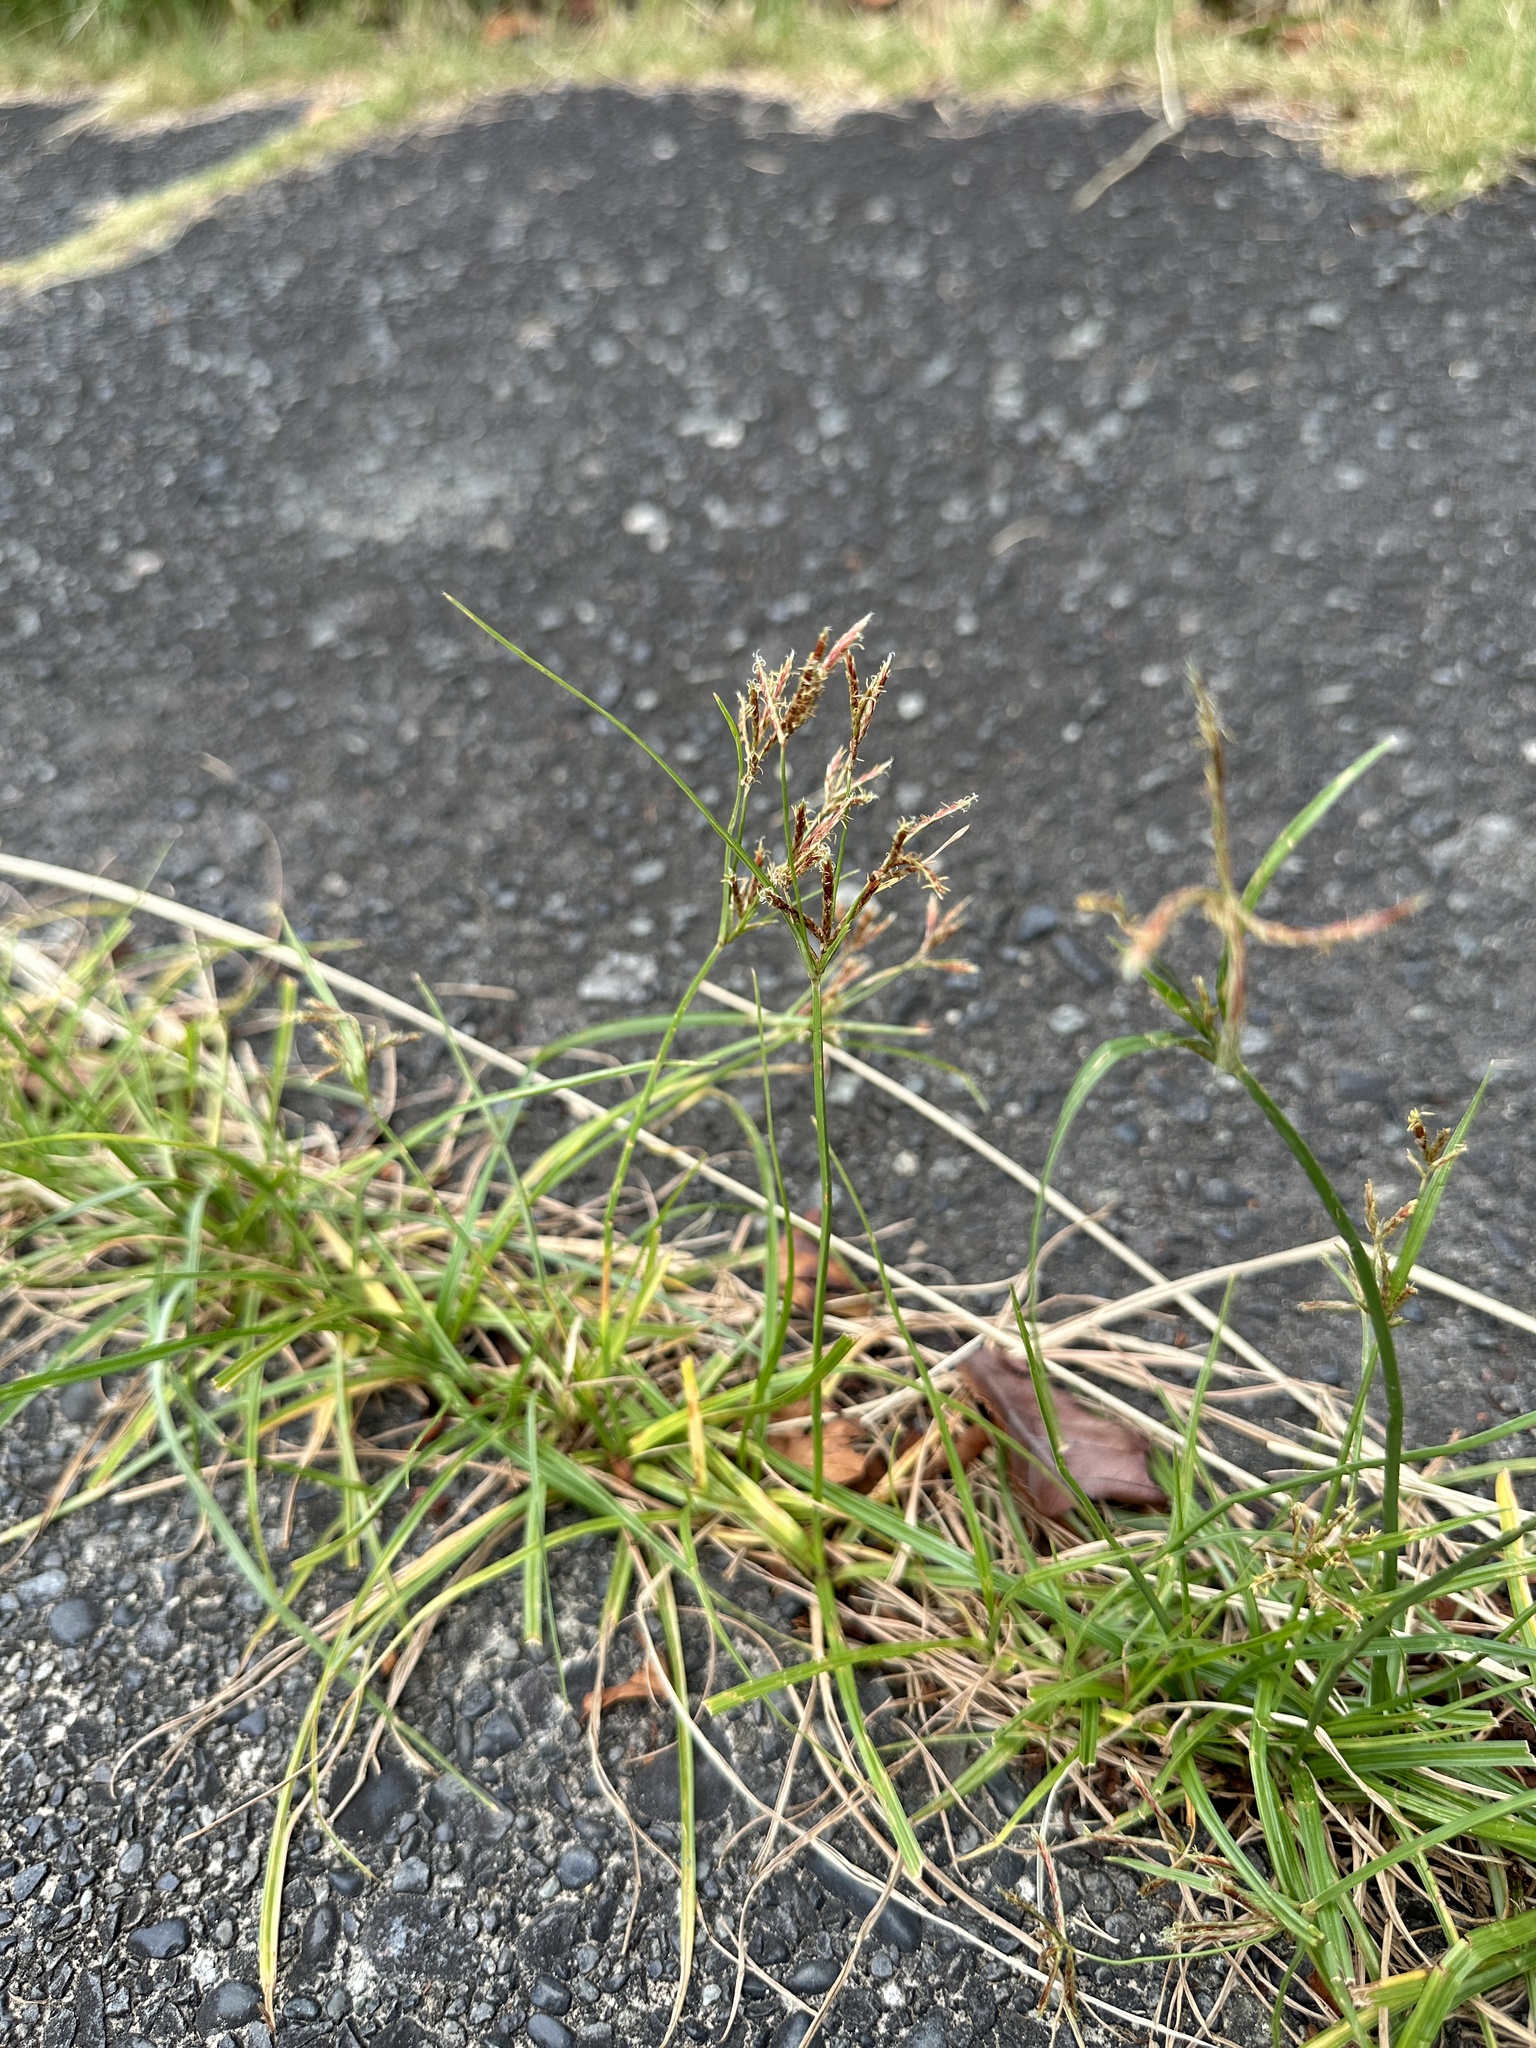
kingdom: Plantae
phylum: Tracheophyta
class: Liliopsida
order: Poales
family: Cyperaceae
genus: Cyperus
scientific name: Cyperus rotundus
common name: Nutgrass
